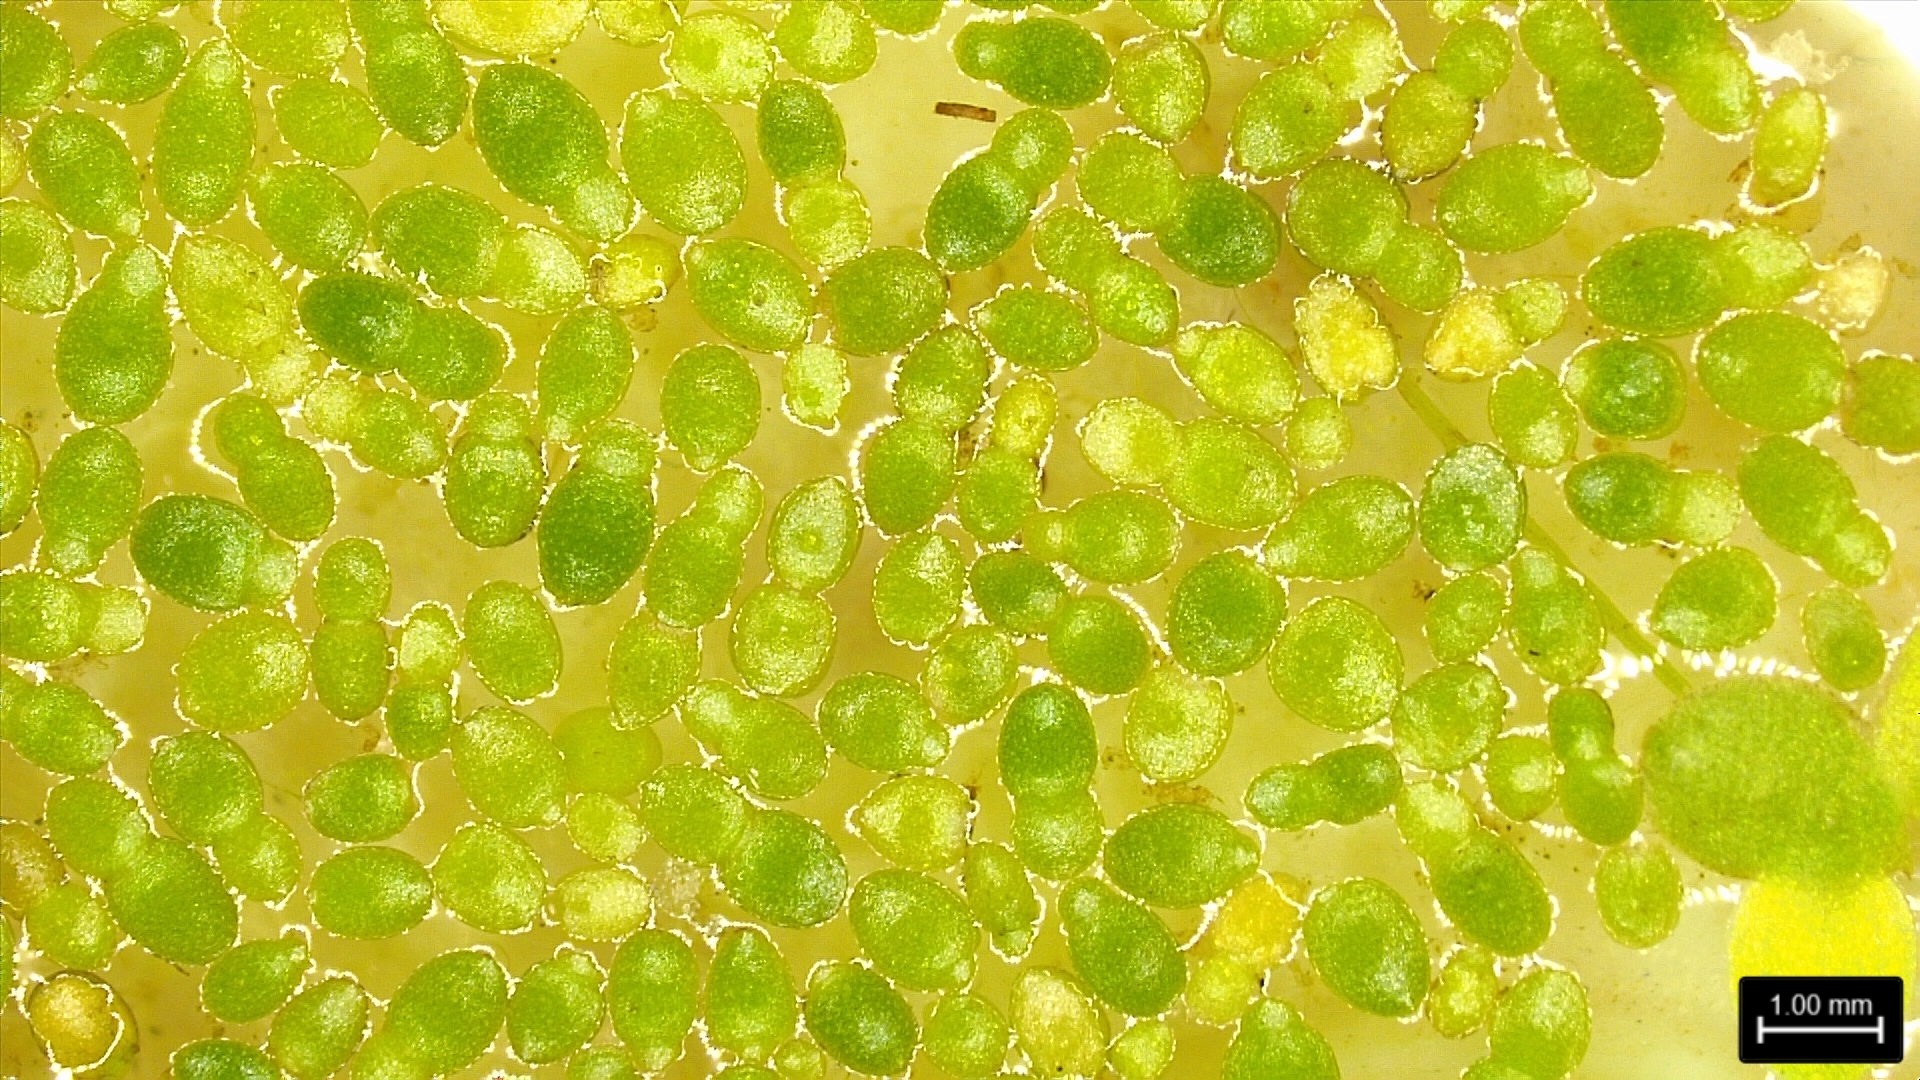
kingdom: Plantae
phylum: Tracheophyta
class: Liliopsida
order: Alismatales
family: Araceae
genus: Wolffia
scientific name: Wolffia brasiliensis
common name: Brazilian watermeal
